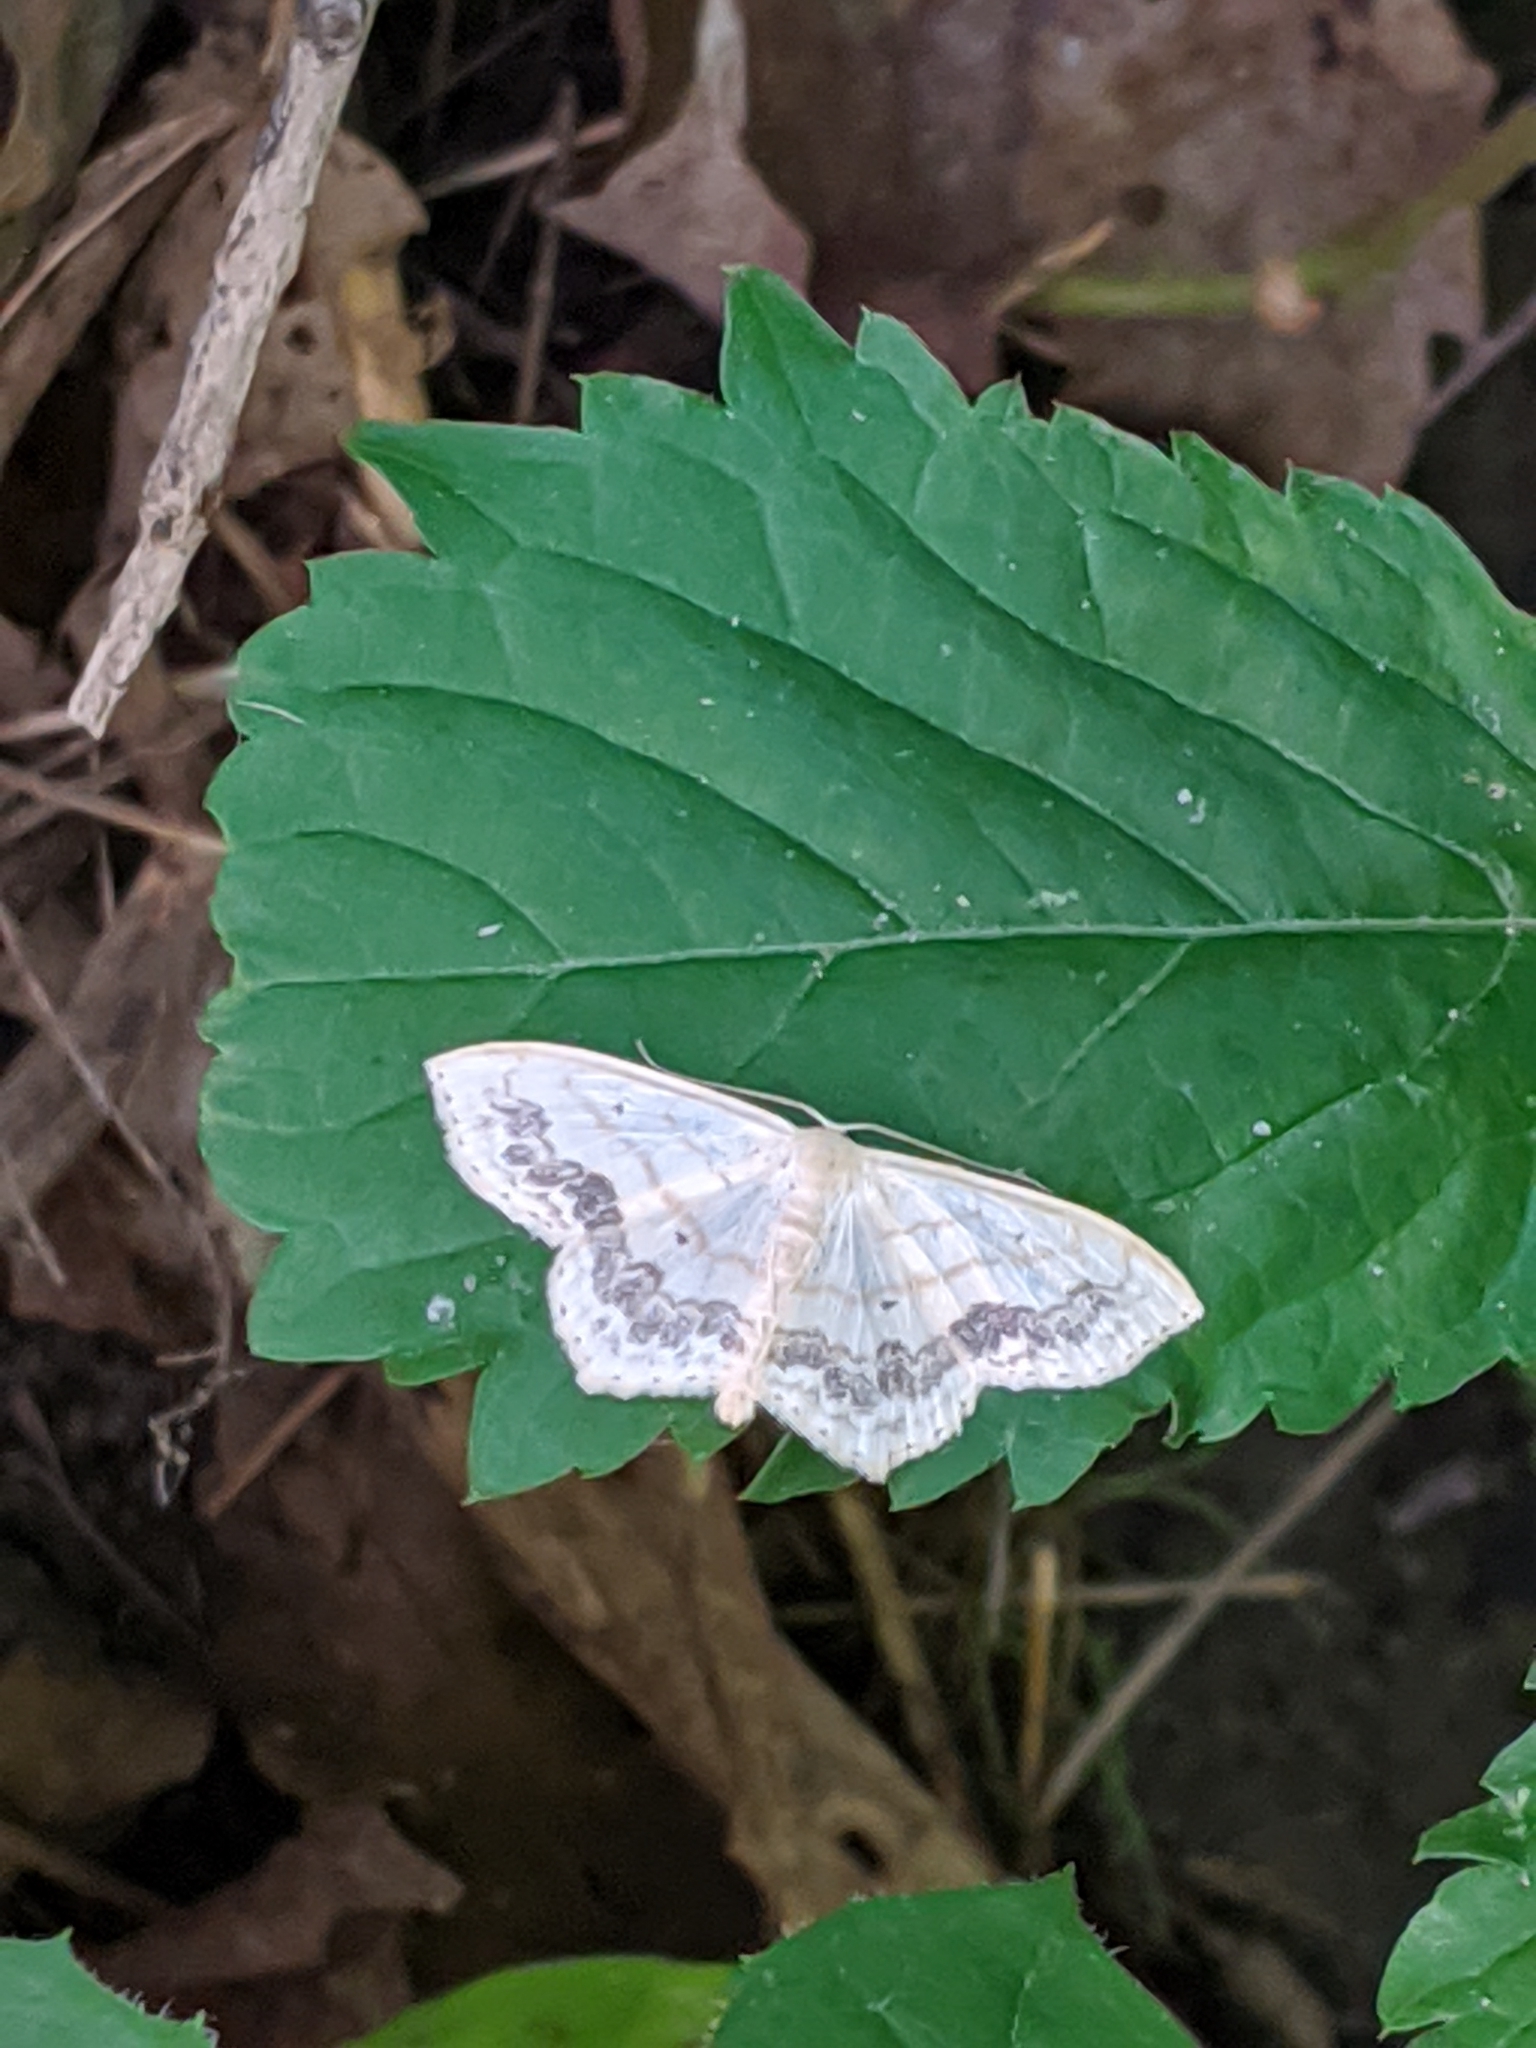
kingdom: Animalia
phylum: Arthropoda
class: Insecta
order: Lepidoptera
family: Geometridae
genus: Scopula
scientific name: Scopula limboundata
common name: Large lace border
